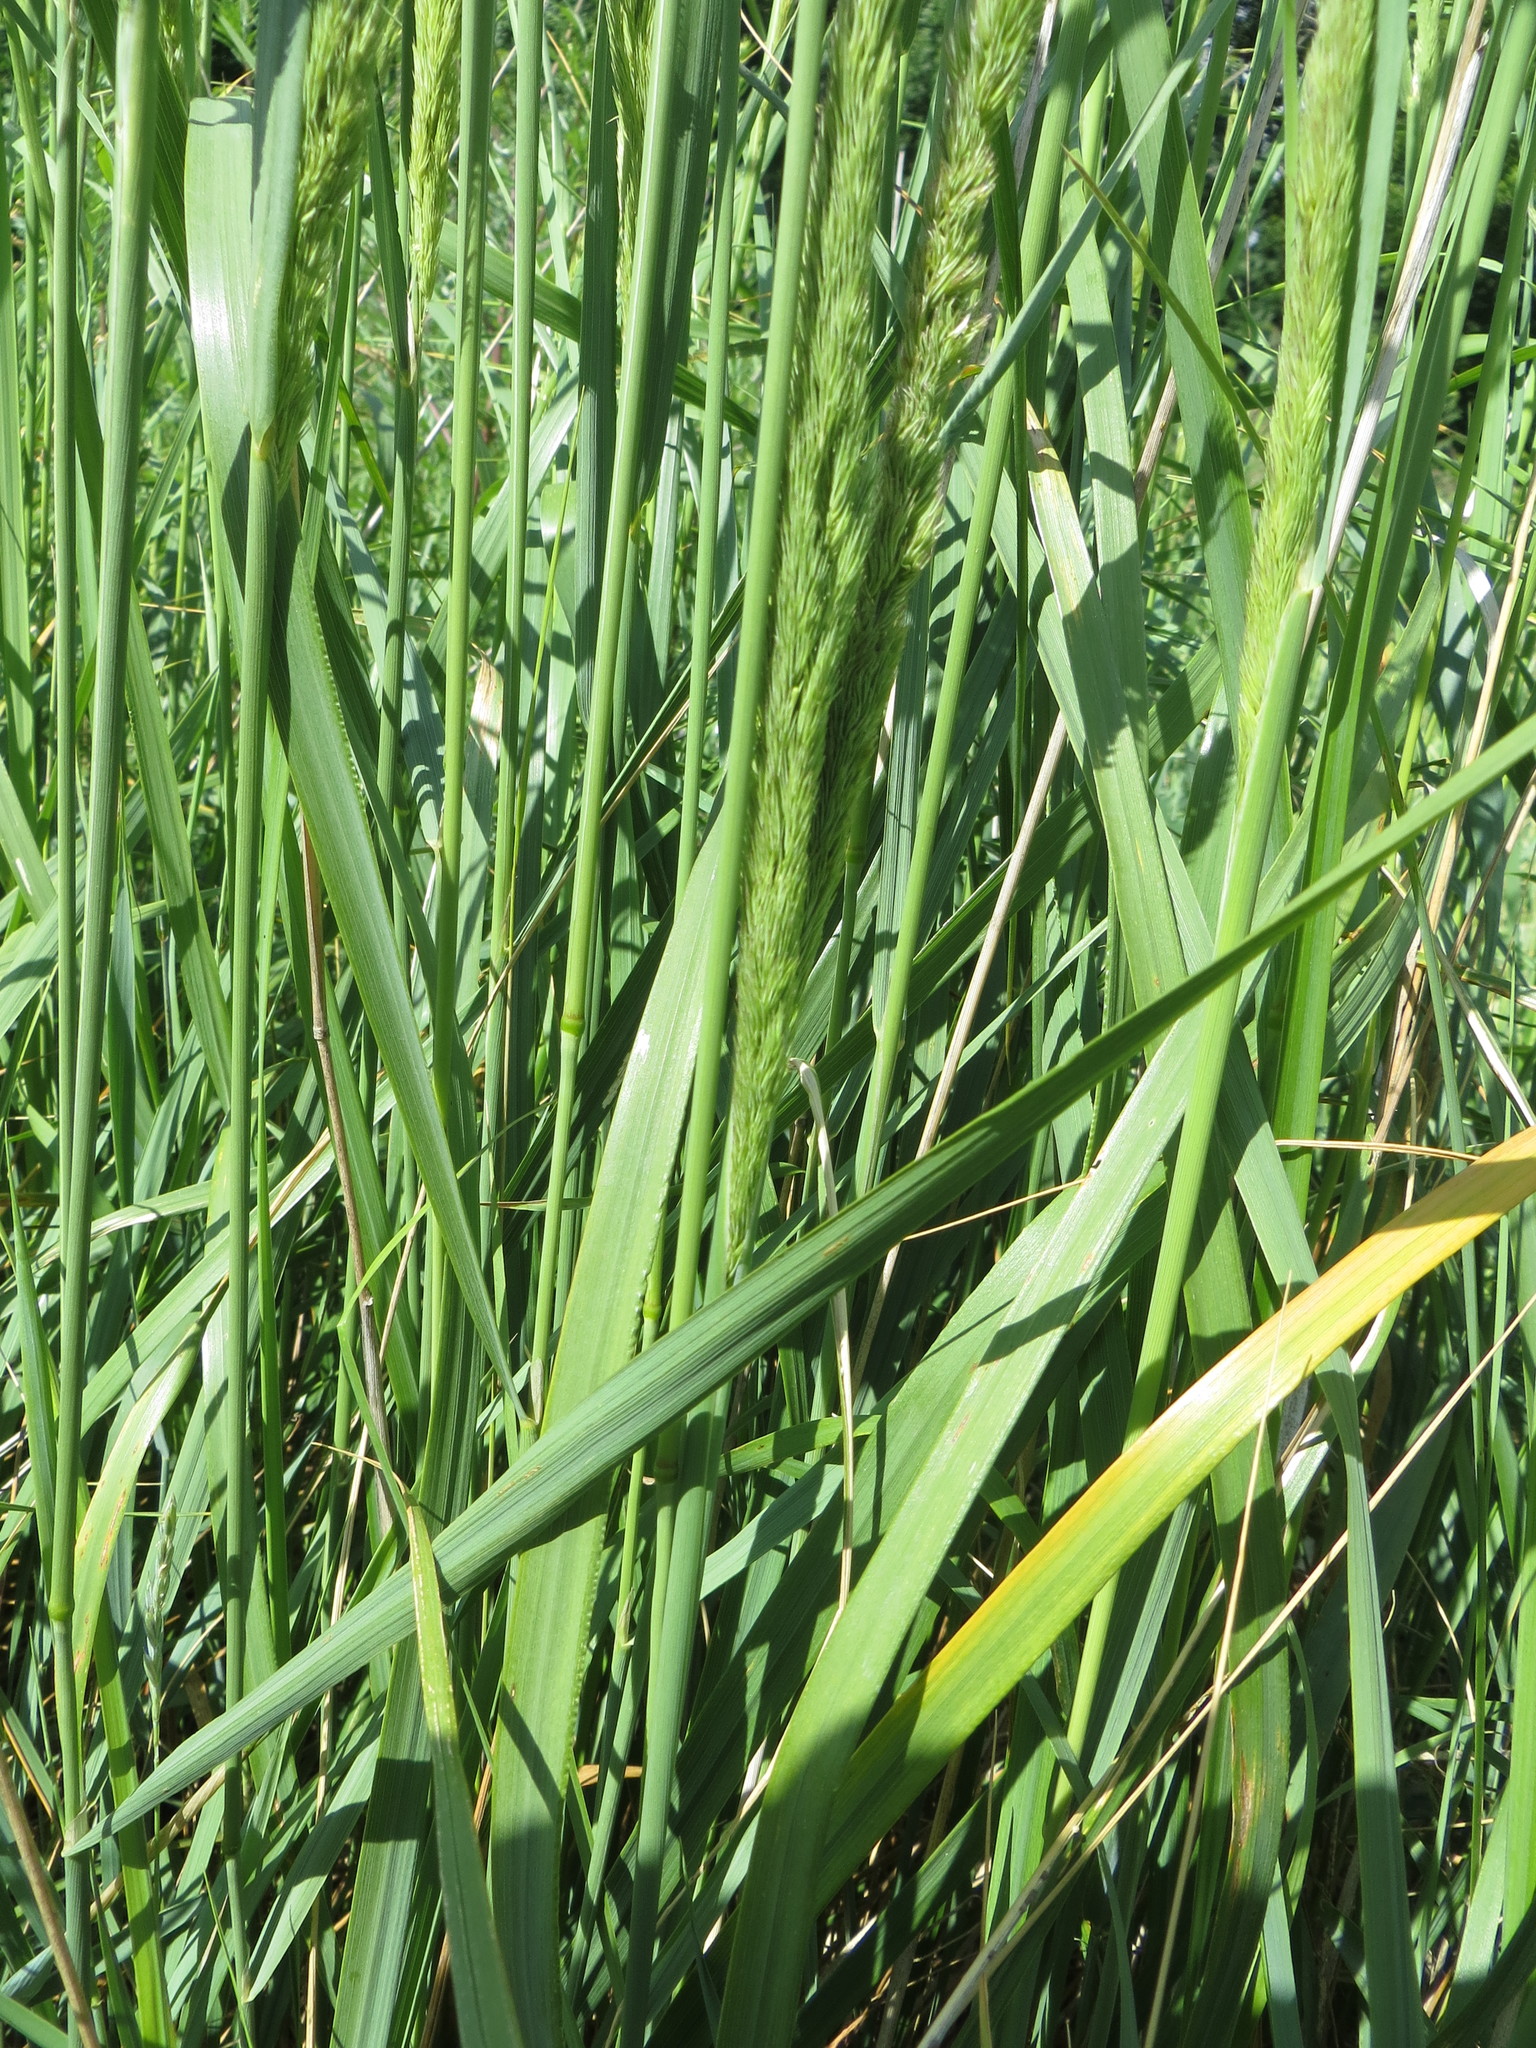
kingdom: Plantae
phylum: Tracheophyta
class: Liliopsida
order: Poales
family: Poaceae
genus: Calamagrostis
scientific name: Calamagrostis epigejos
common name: Wood small-reed
